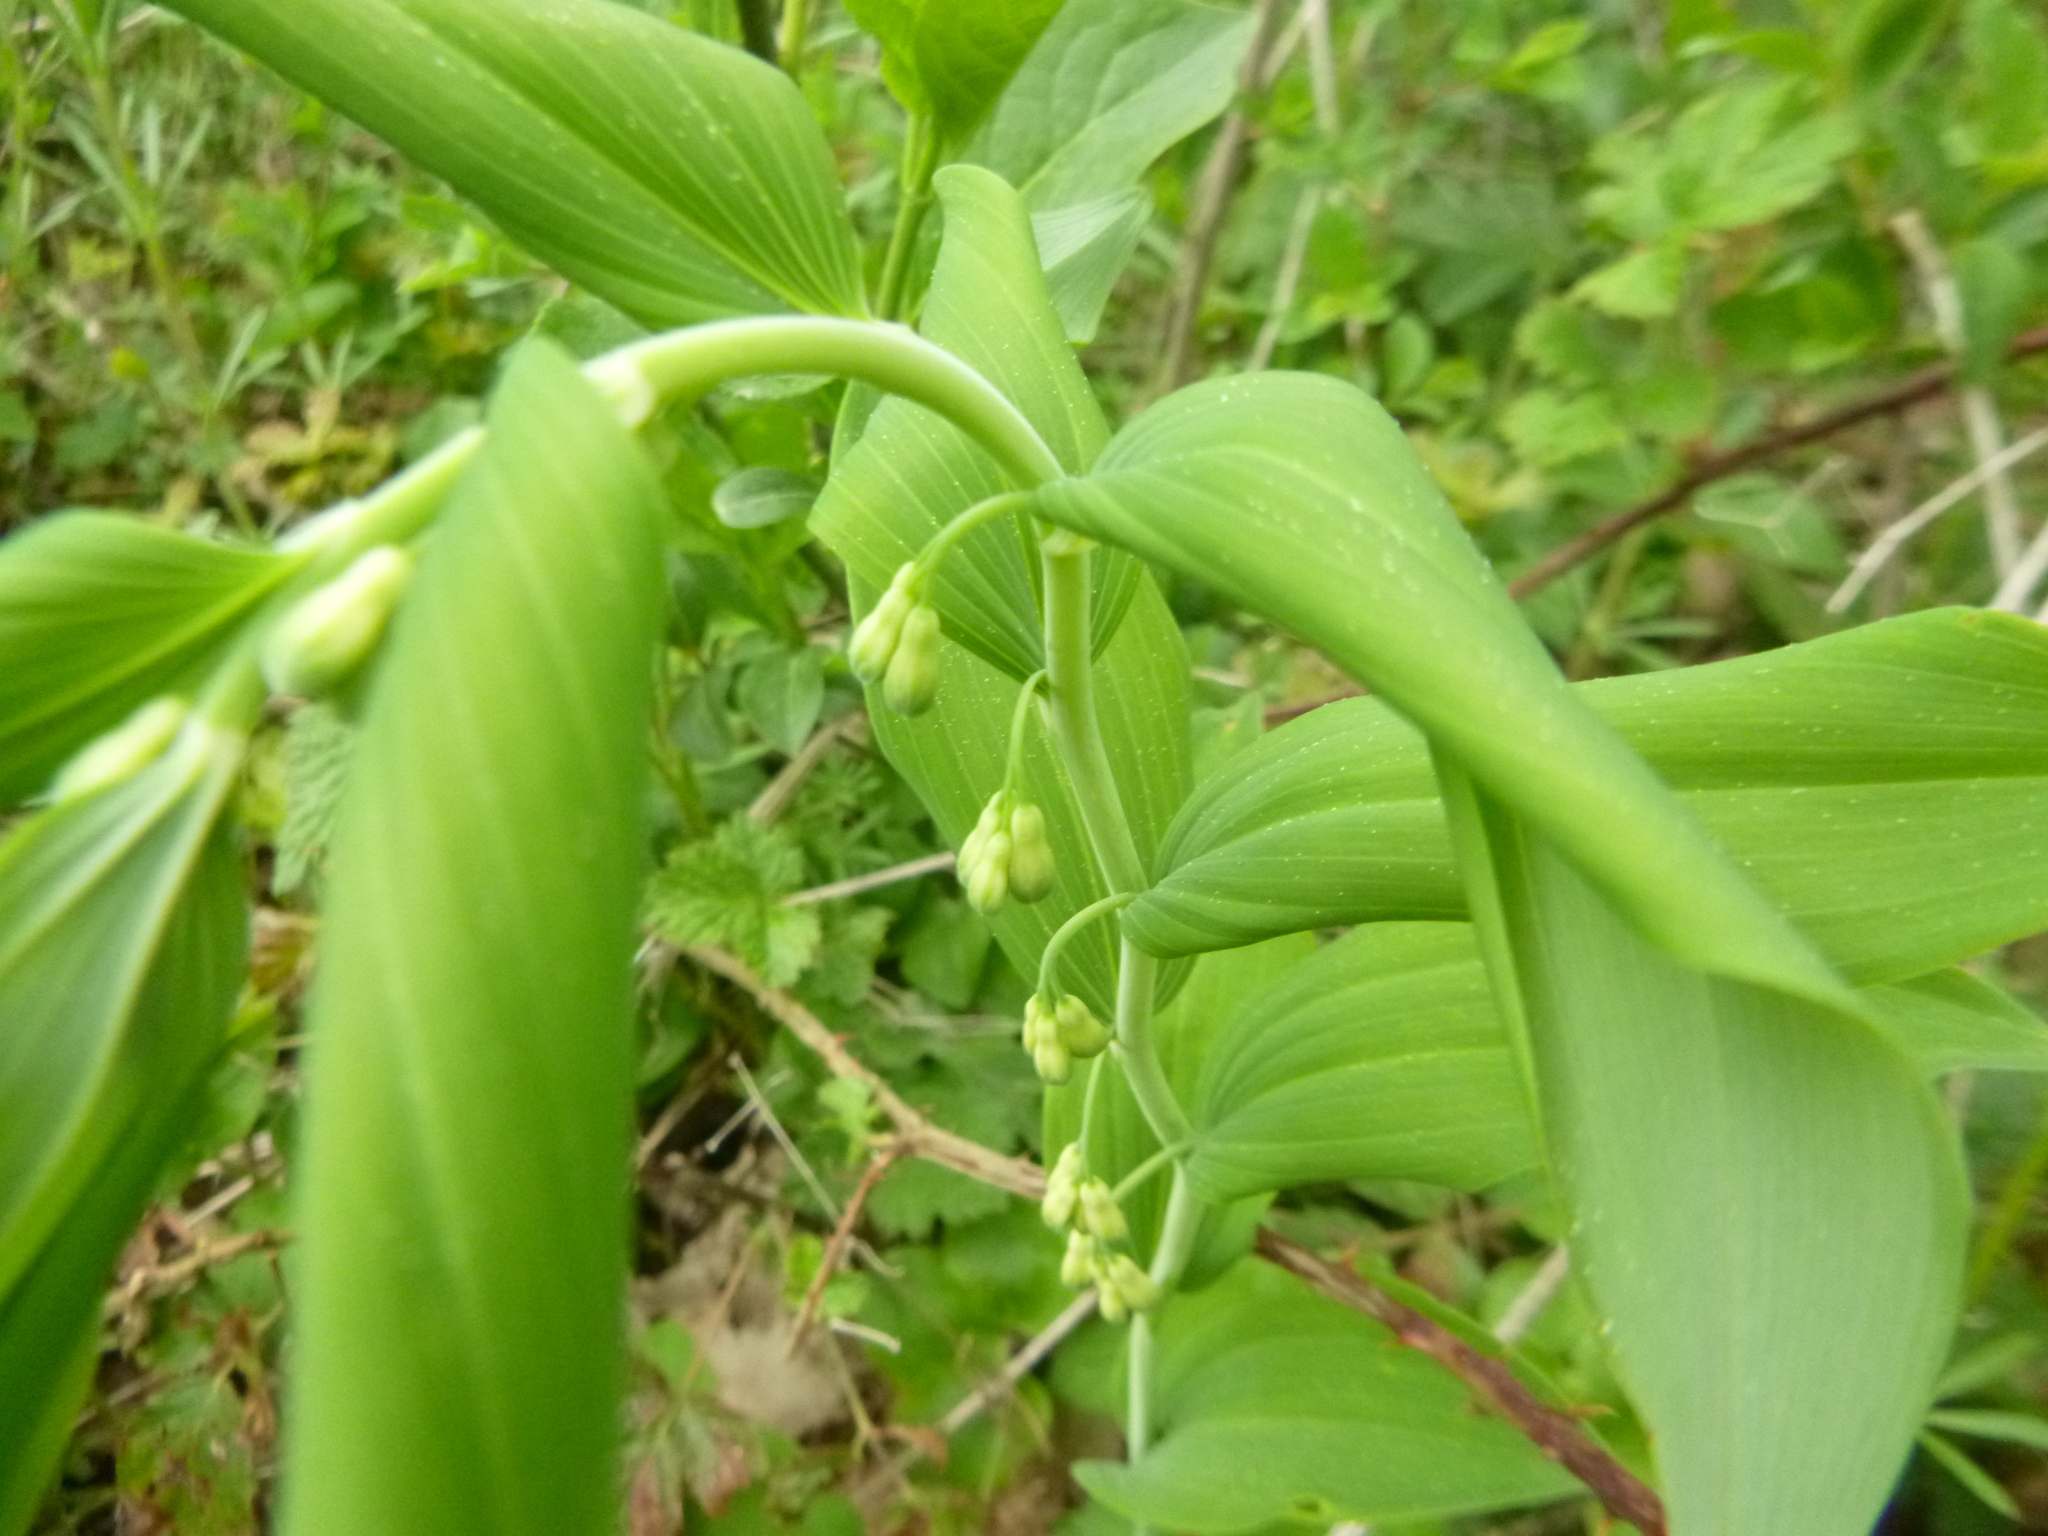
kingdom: Plantae
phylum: Tracheophyta
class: Liliopsida
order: Asparagales
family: Asparagaceae
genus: Polygonatum
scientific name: Polygonatum multiflorum
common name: Solomon's-seal
